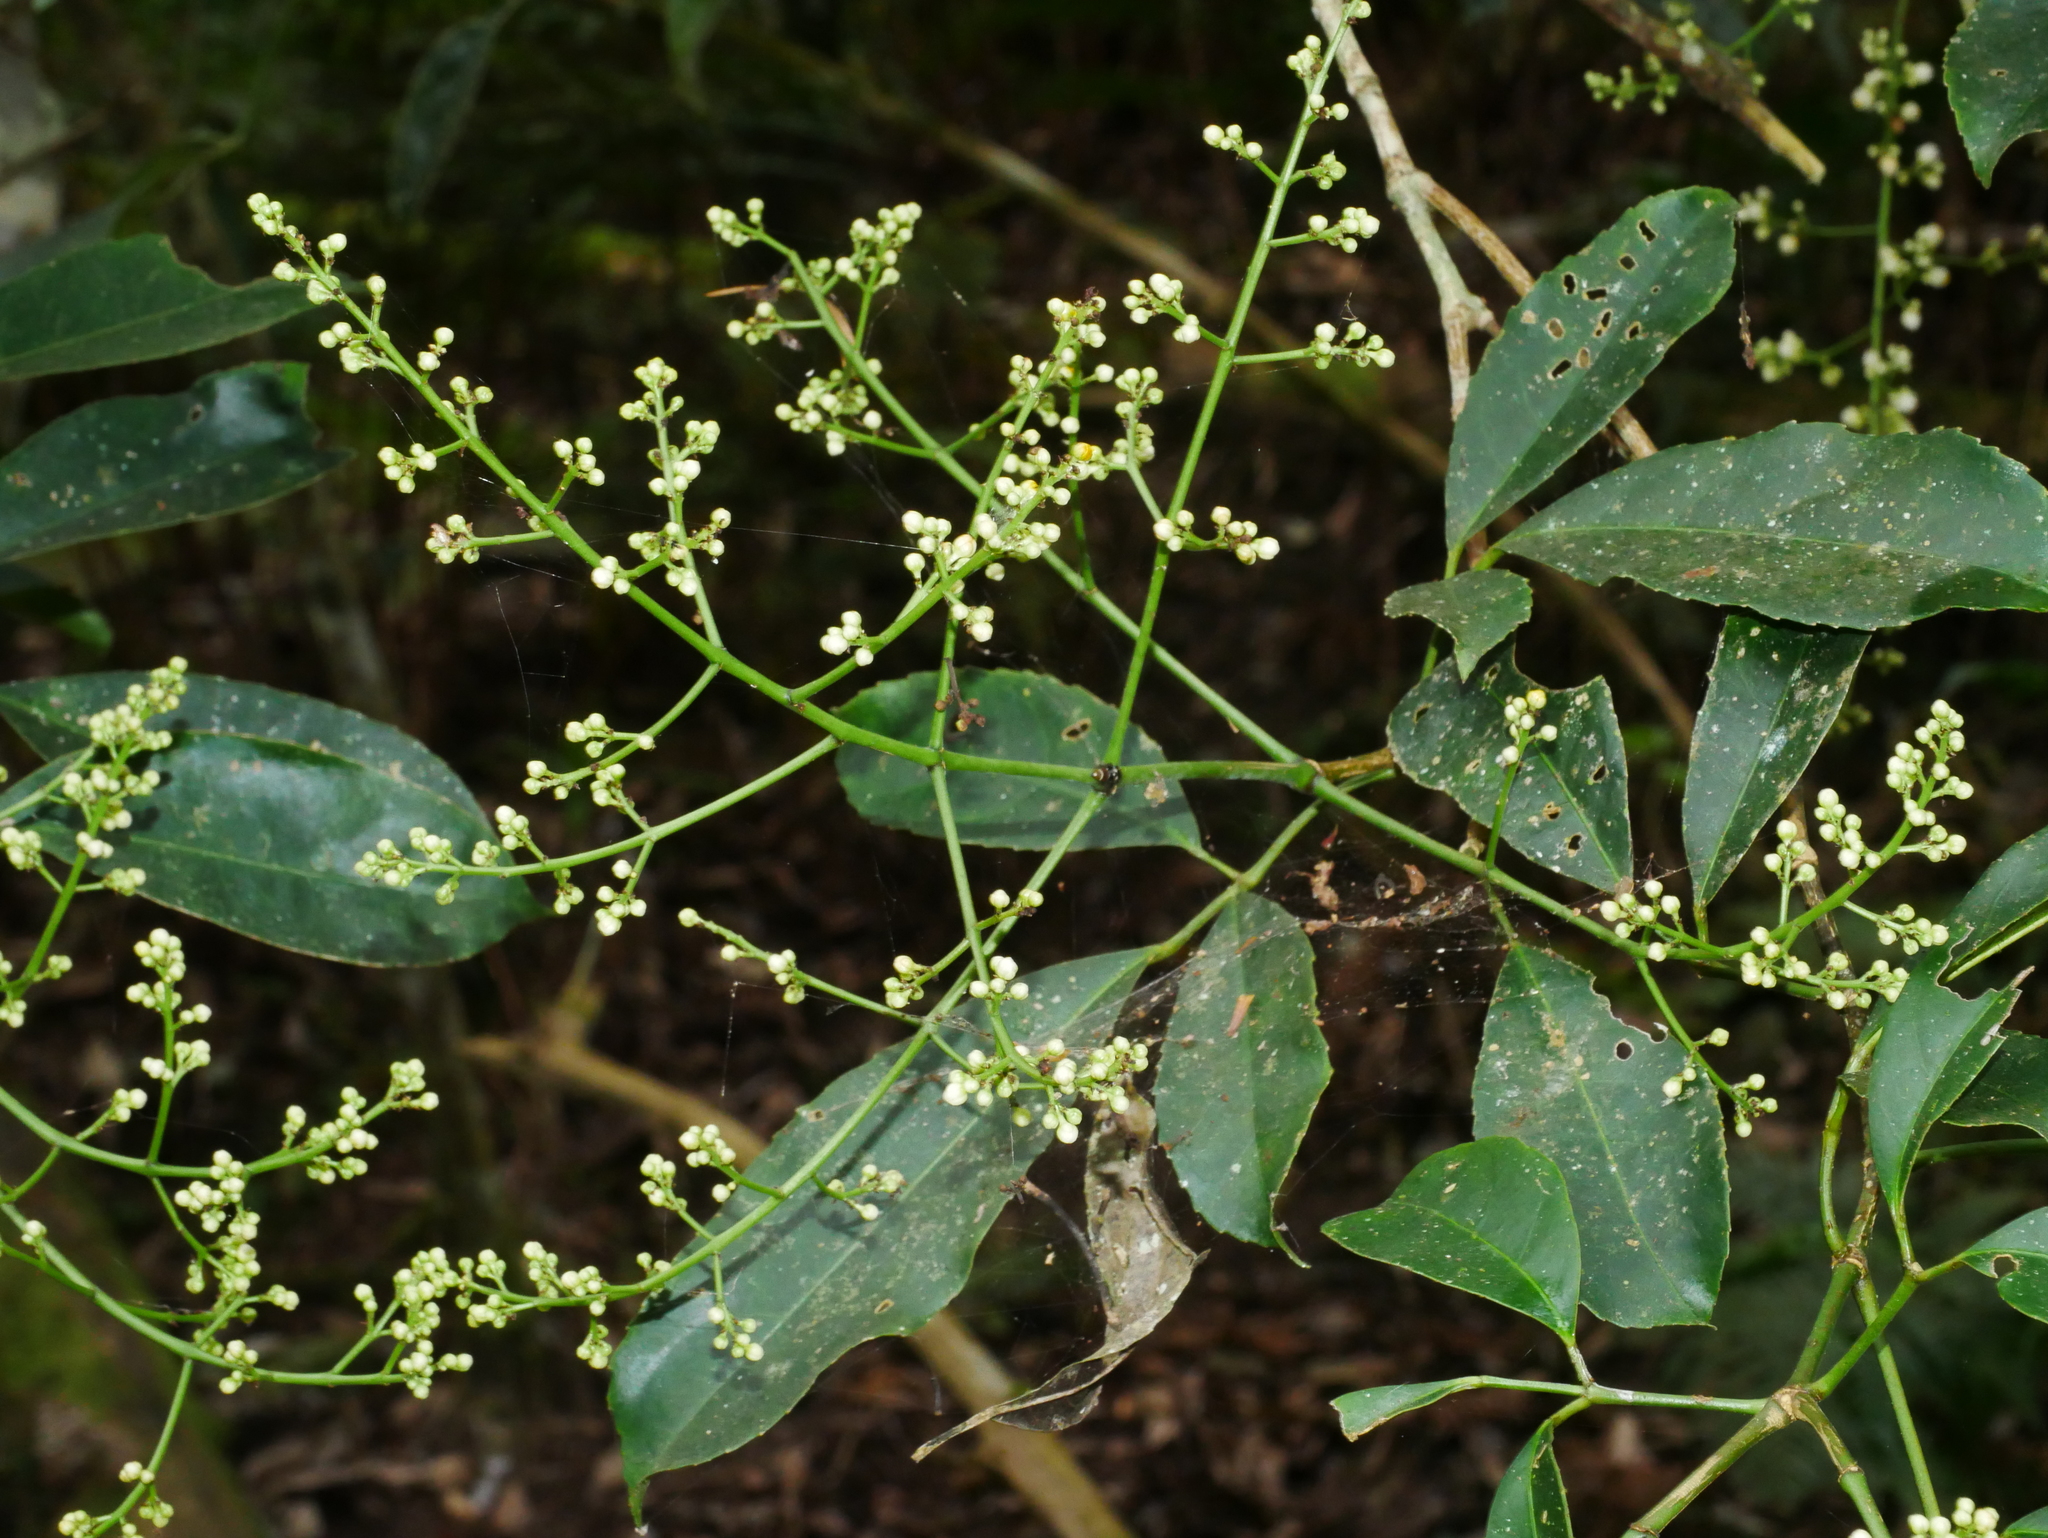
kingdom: Plantae
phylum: Tracheophyta
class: Magnoliopsida
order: Crossosomatales
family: Staphyleaceae
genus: Turpinia
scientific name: Turpinia ternata
